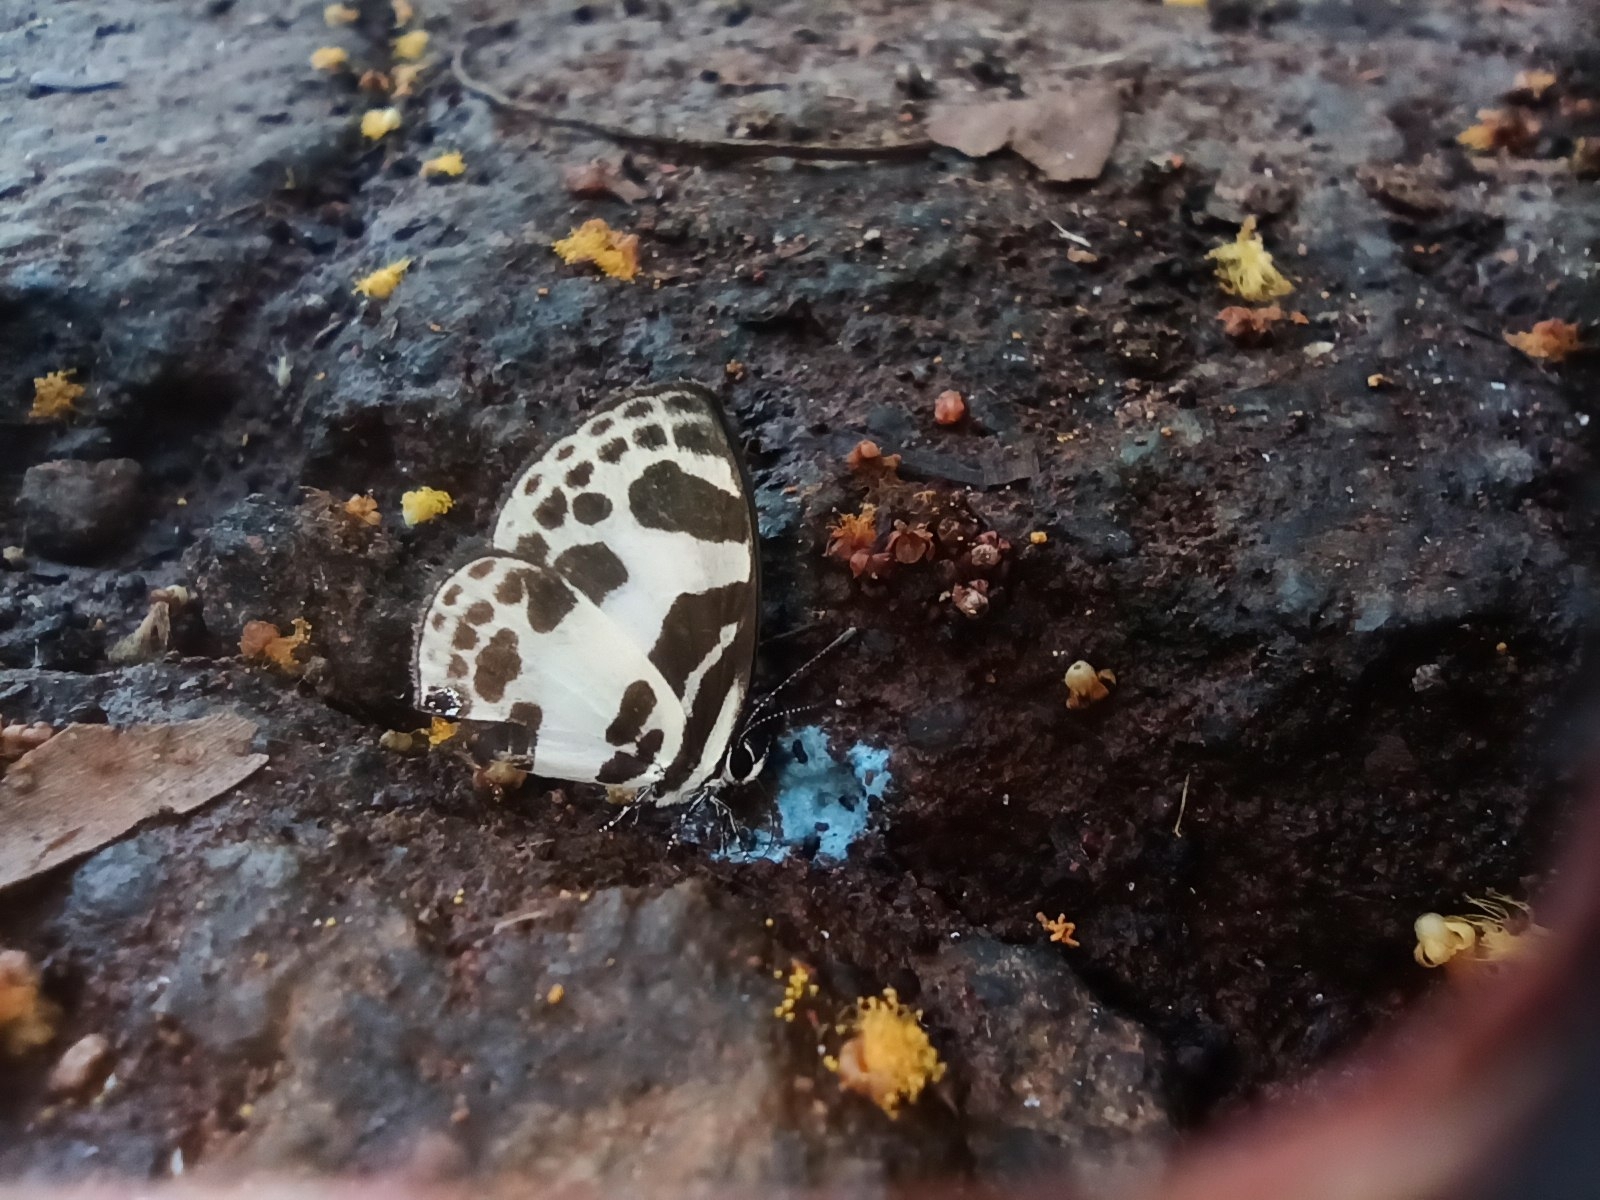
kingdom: Animalia
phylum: Arthropoda
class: Insecta
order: Lepidoptera
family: Lycaenidae
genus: Discolampa
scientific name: Discolampa ethion
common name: Banded blue pierrot
